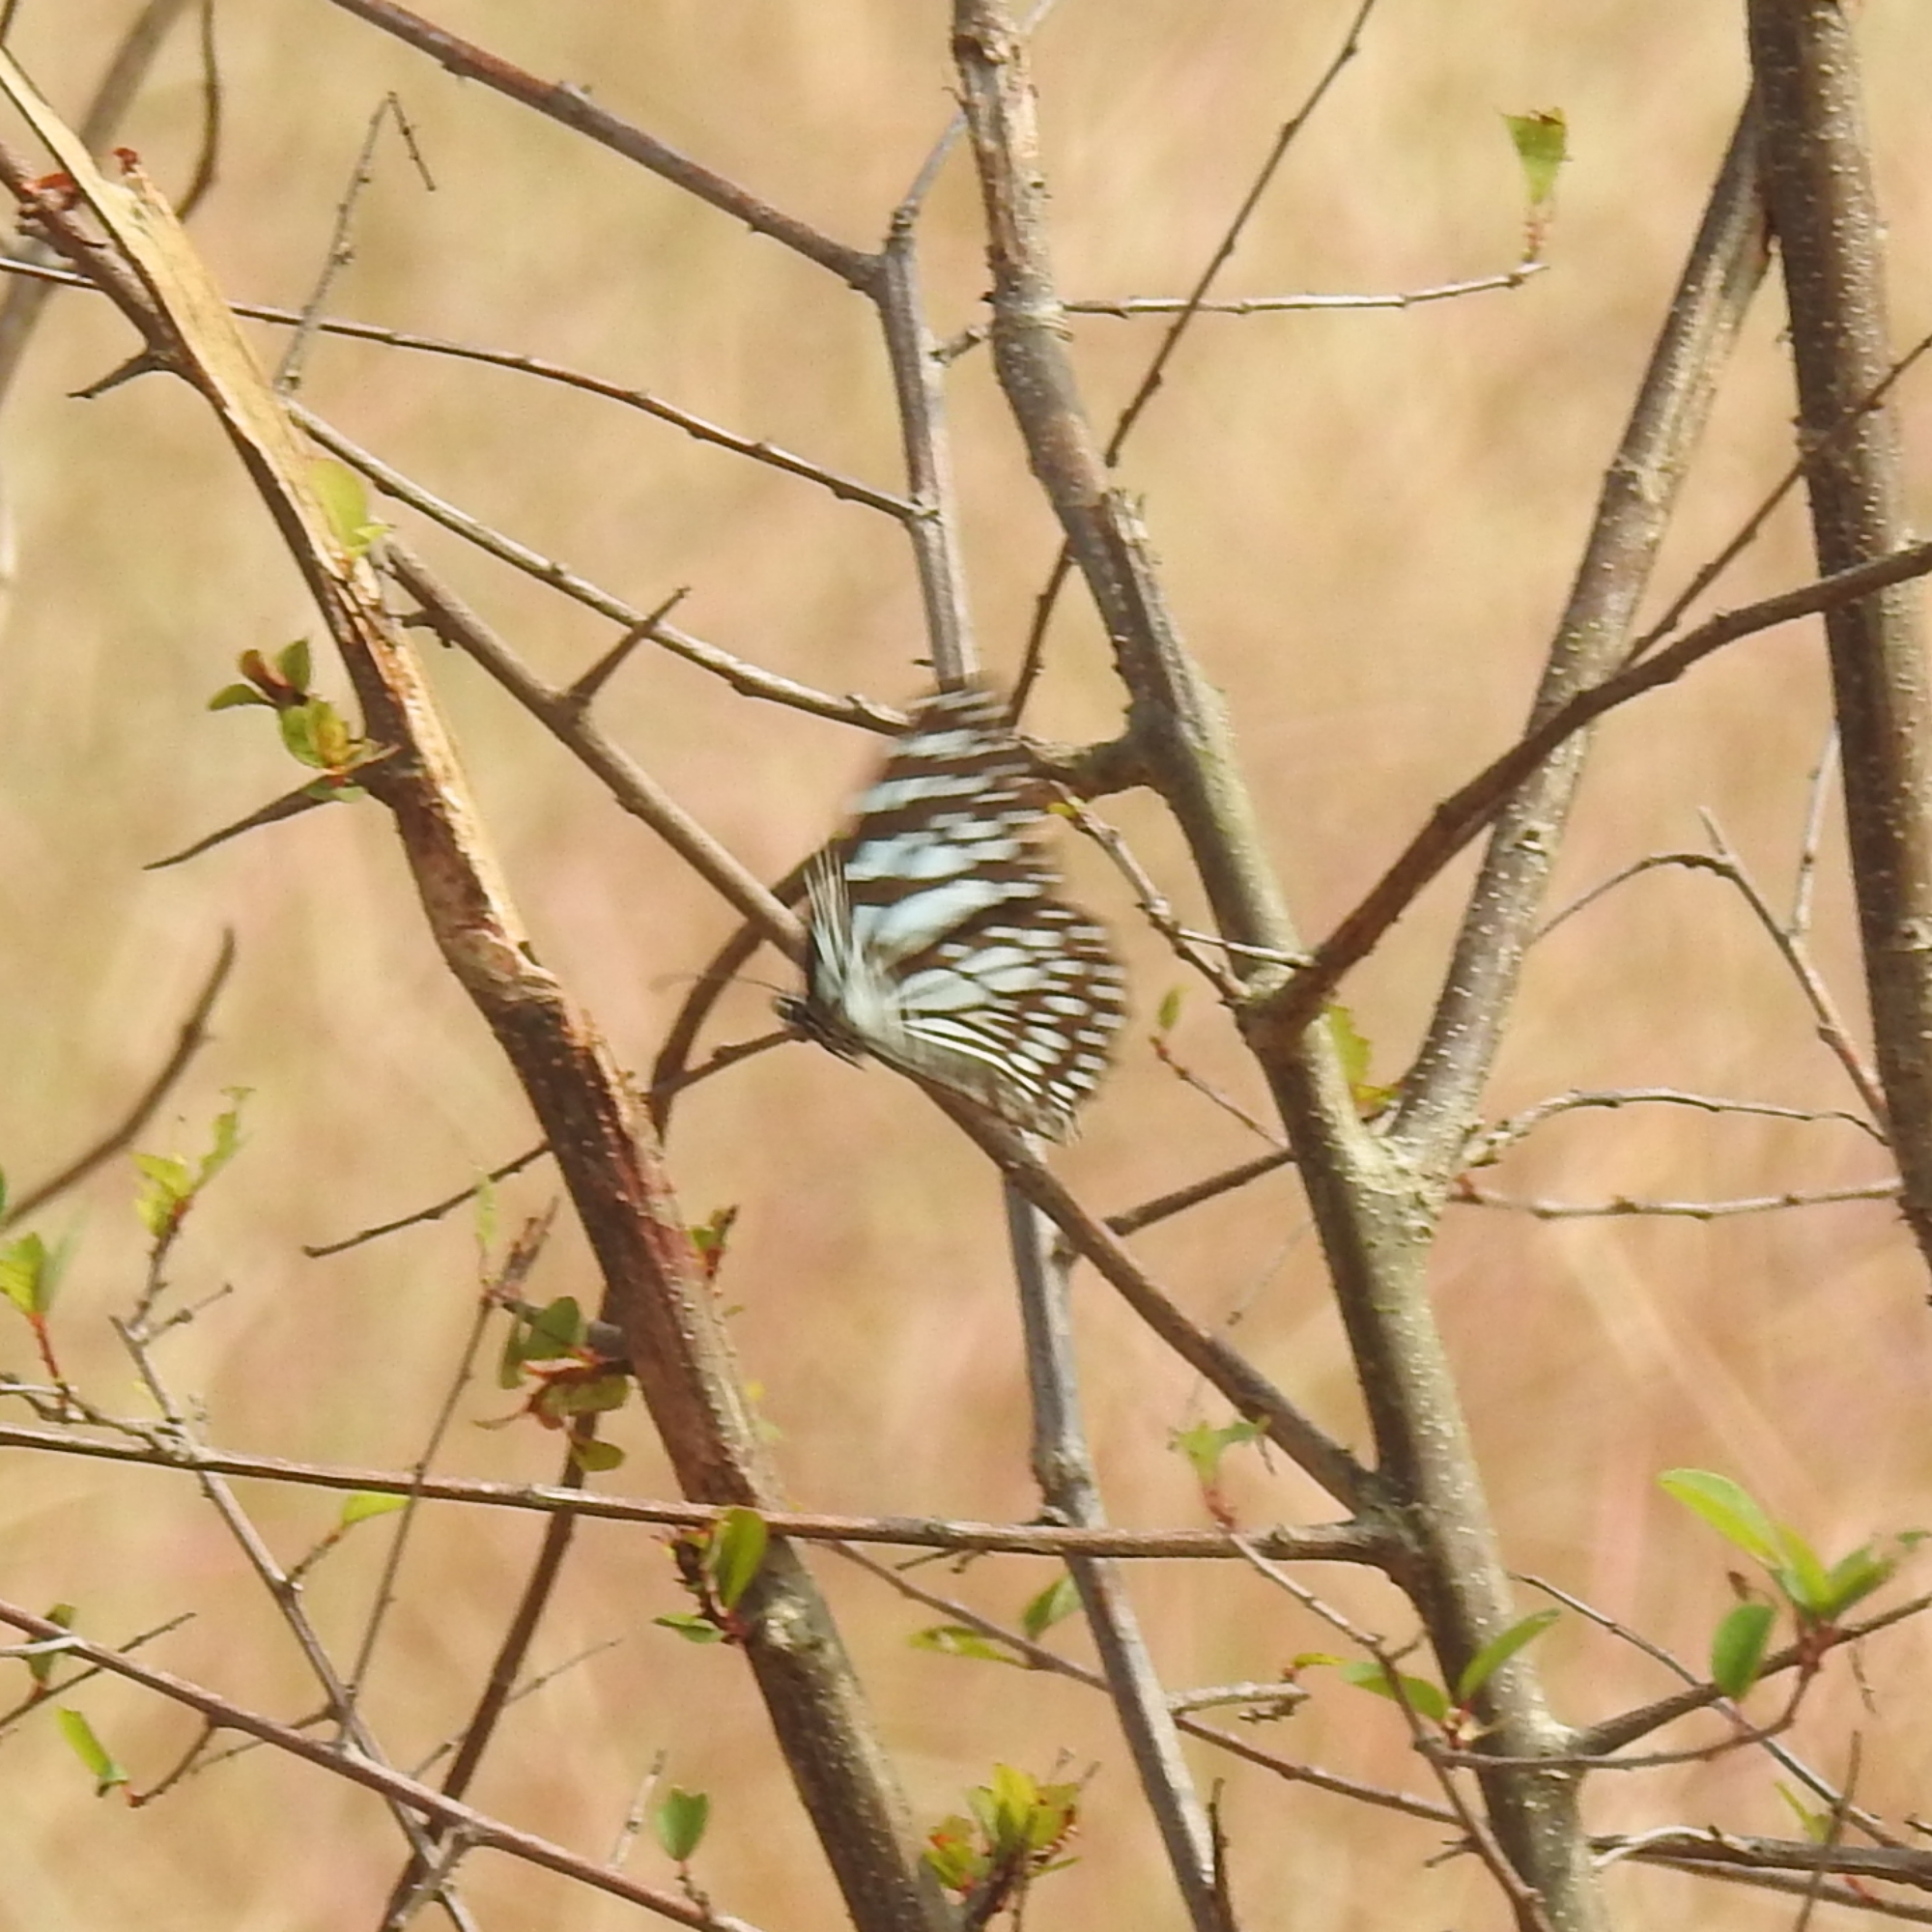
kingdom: Animalia
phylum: Arthropoda
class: Insecta
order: Lepidoptera
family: Nymphalidae
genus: Tirumala
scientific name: Tirumala limniace
